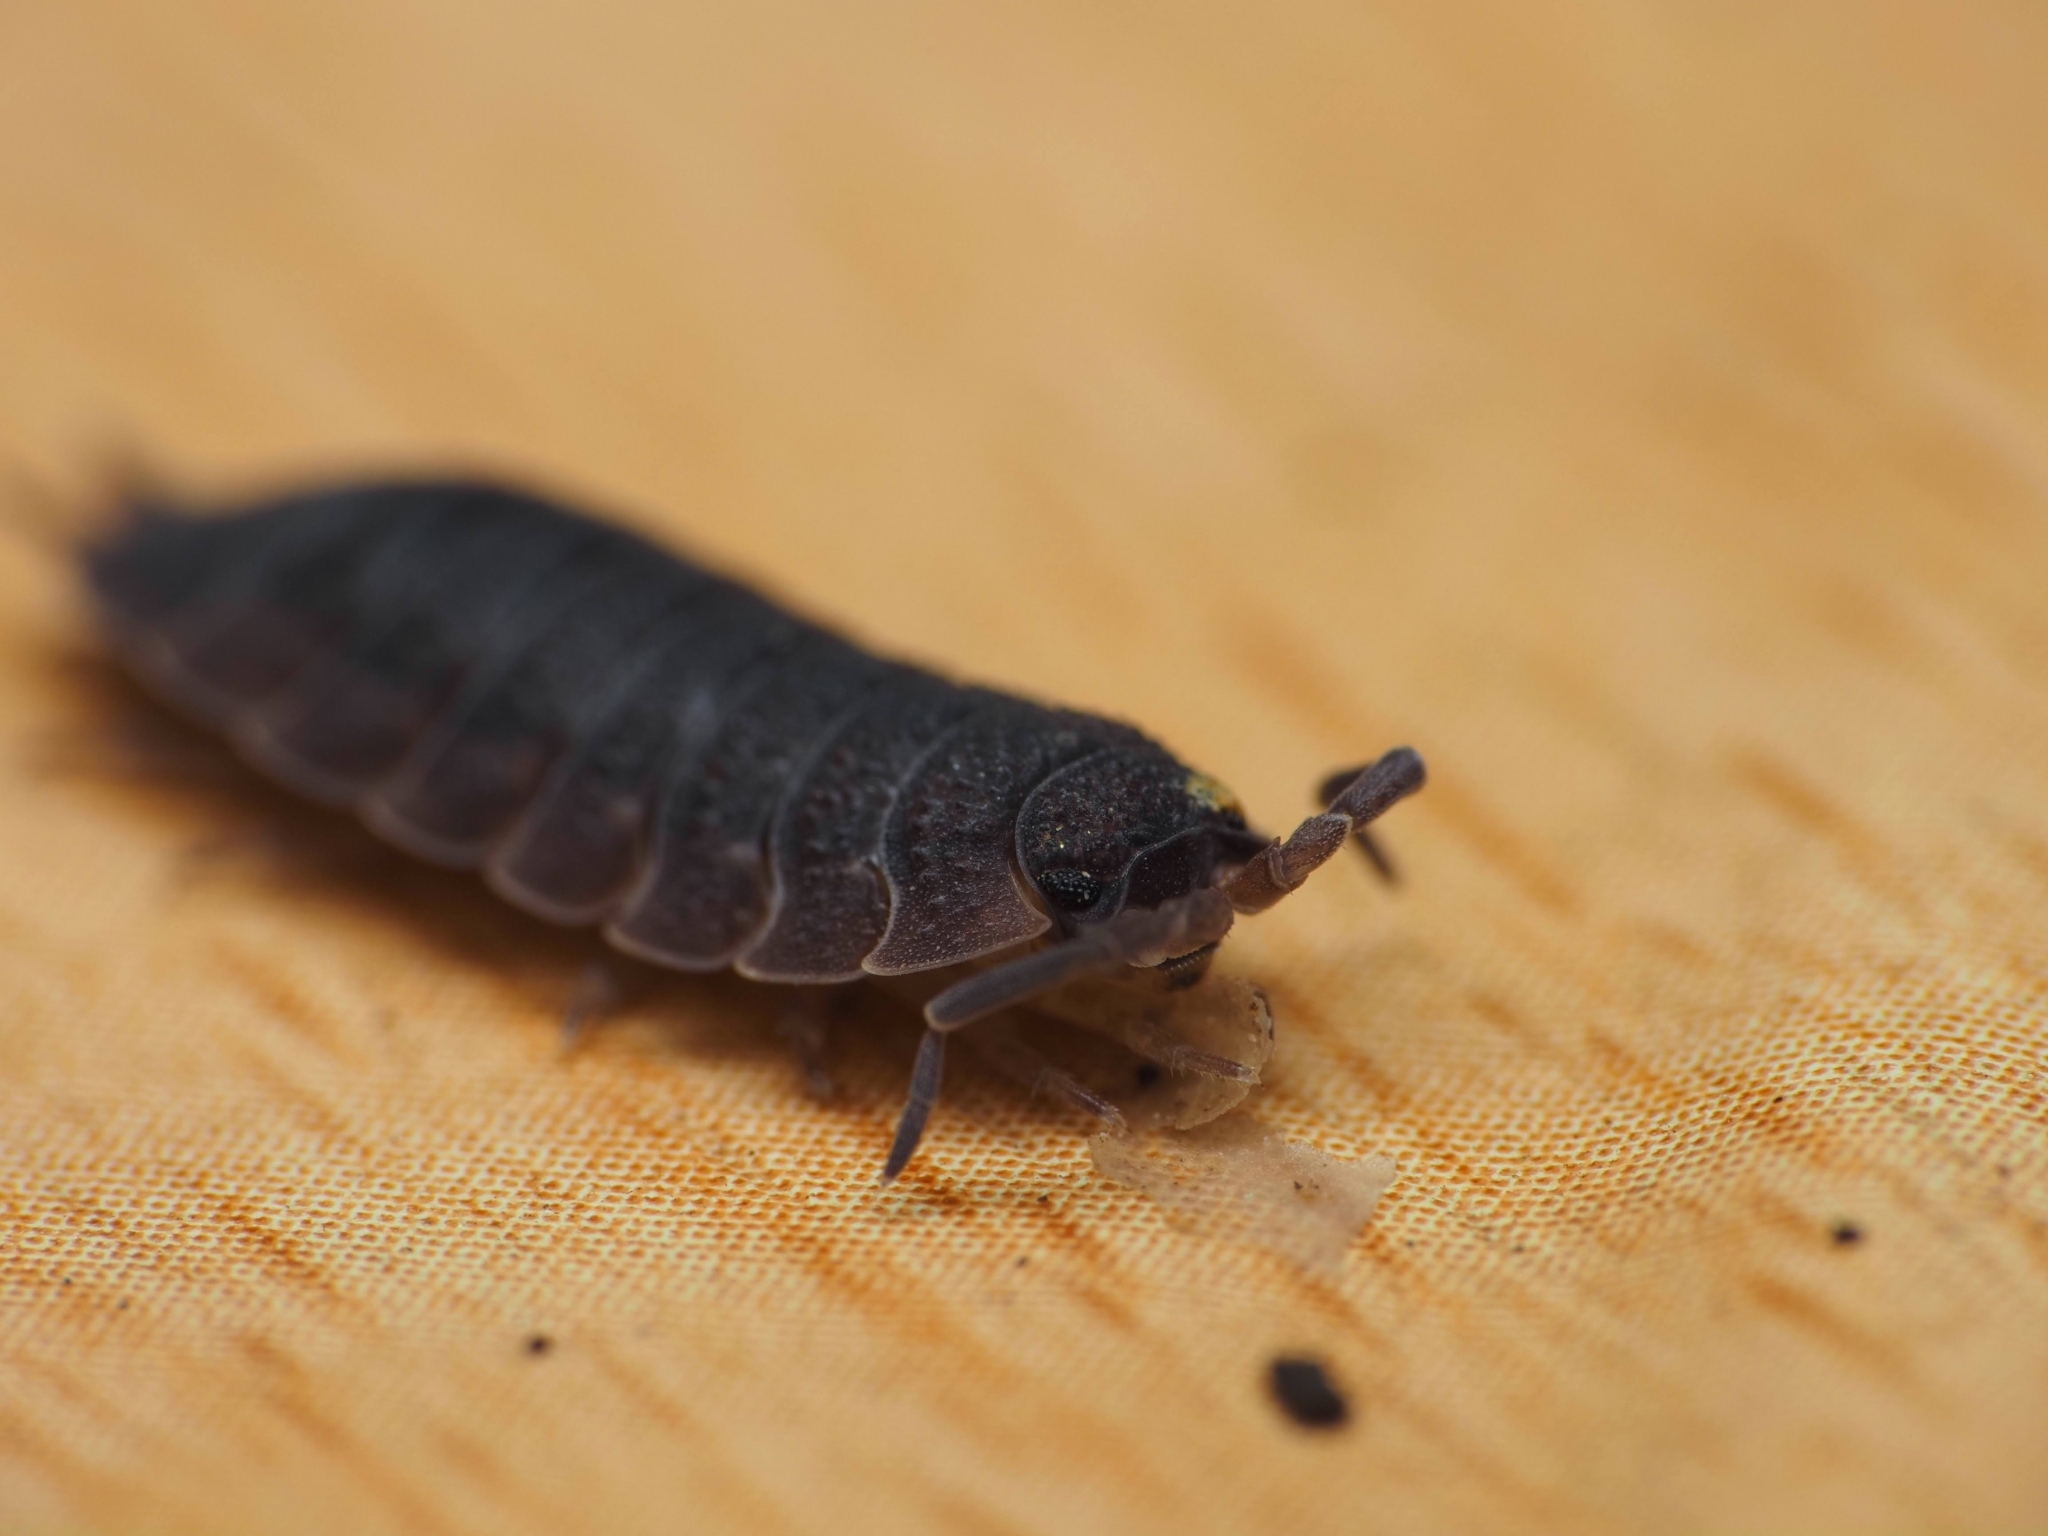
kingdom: Animalia
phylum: Arthropoda
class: Malacostraca
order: Isopoda
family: Porcellionidae
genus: Porcellio
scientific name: Porcellio scaber
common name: Common rough woodlouse
